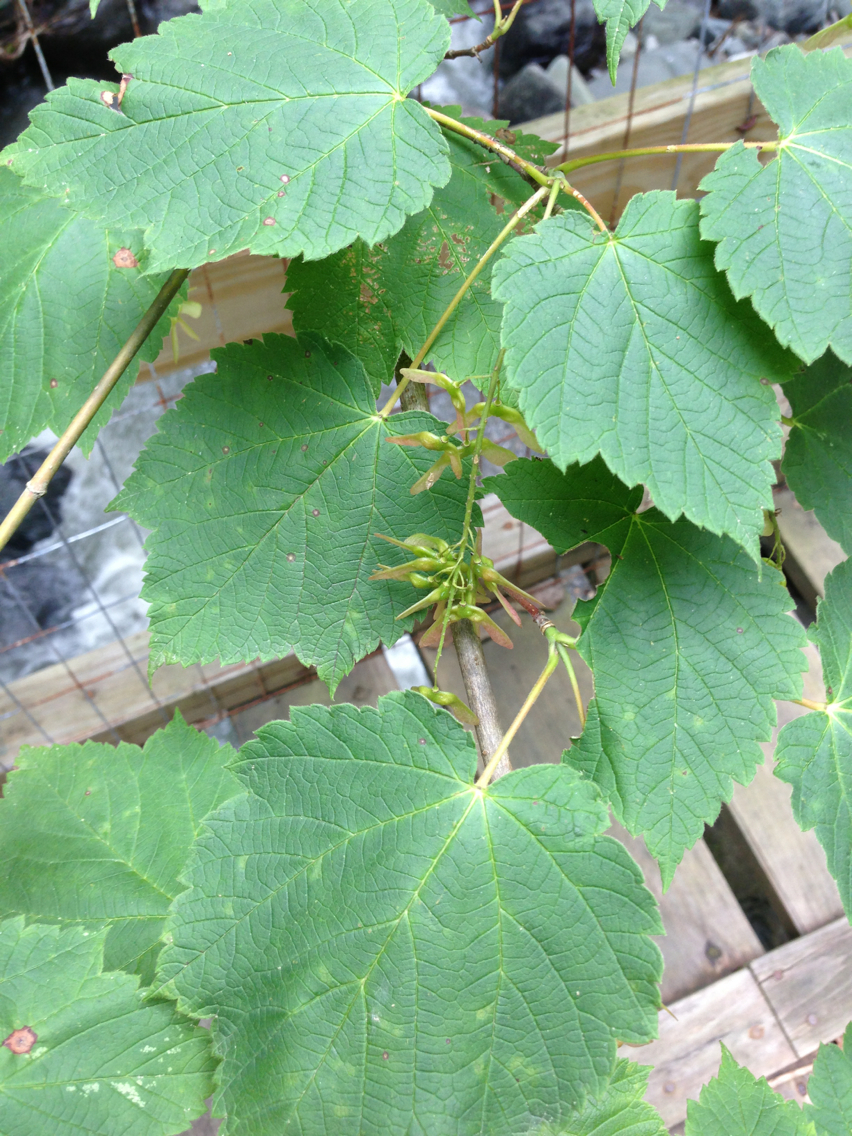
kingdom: Plantae
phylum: Tracheophyta
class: Magnoliopsida
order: Sapindales
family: Sapindaceae
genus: Acer
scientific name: Acer spicatum
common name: Mountain maple
